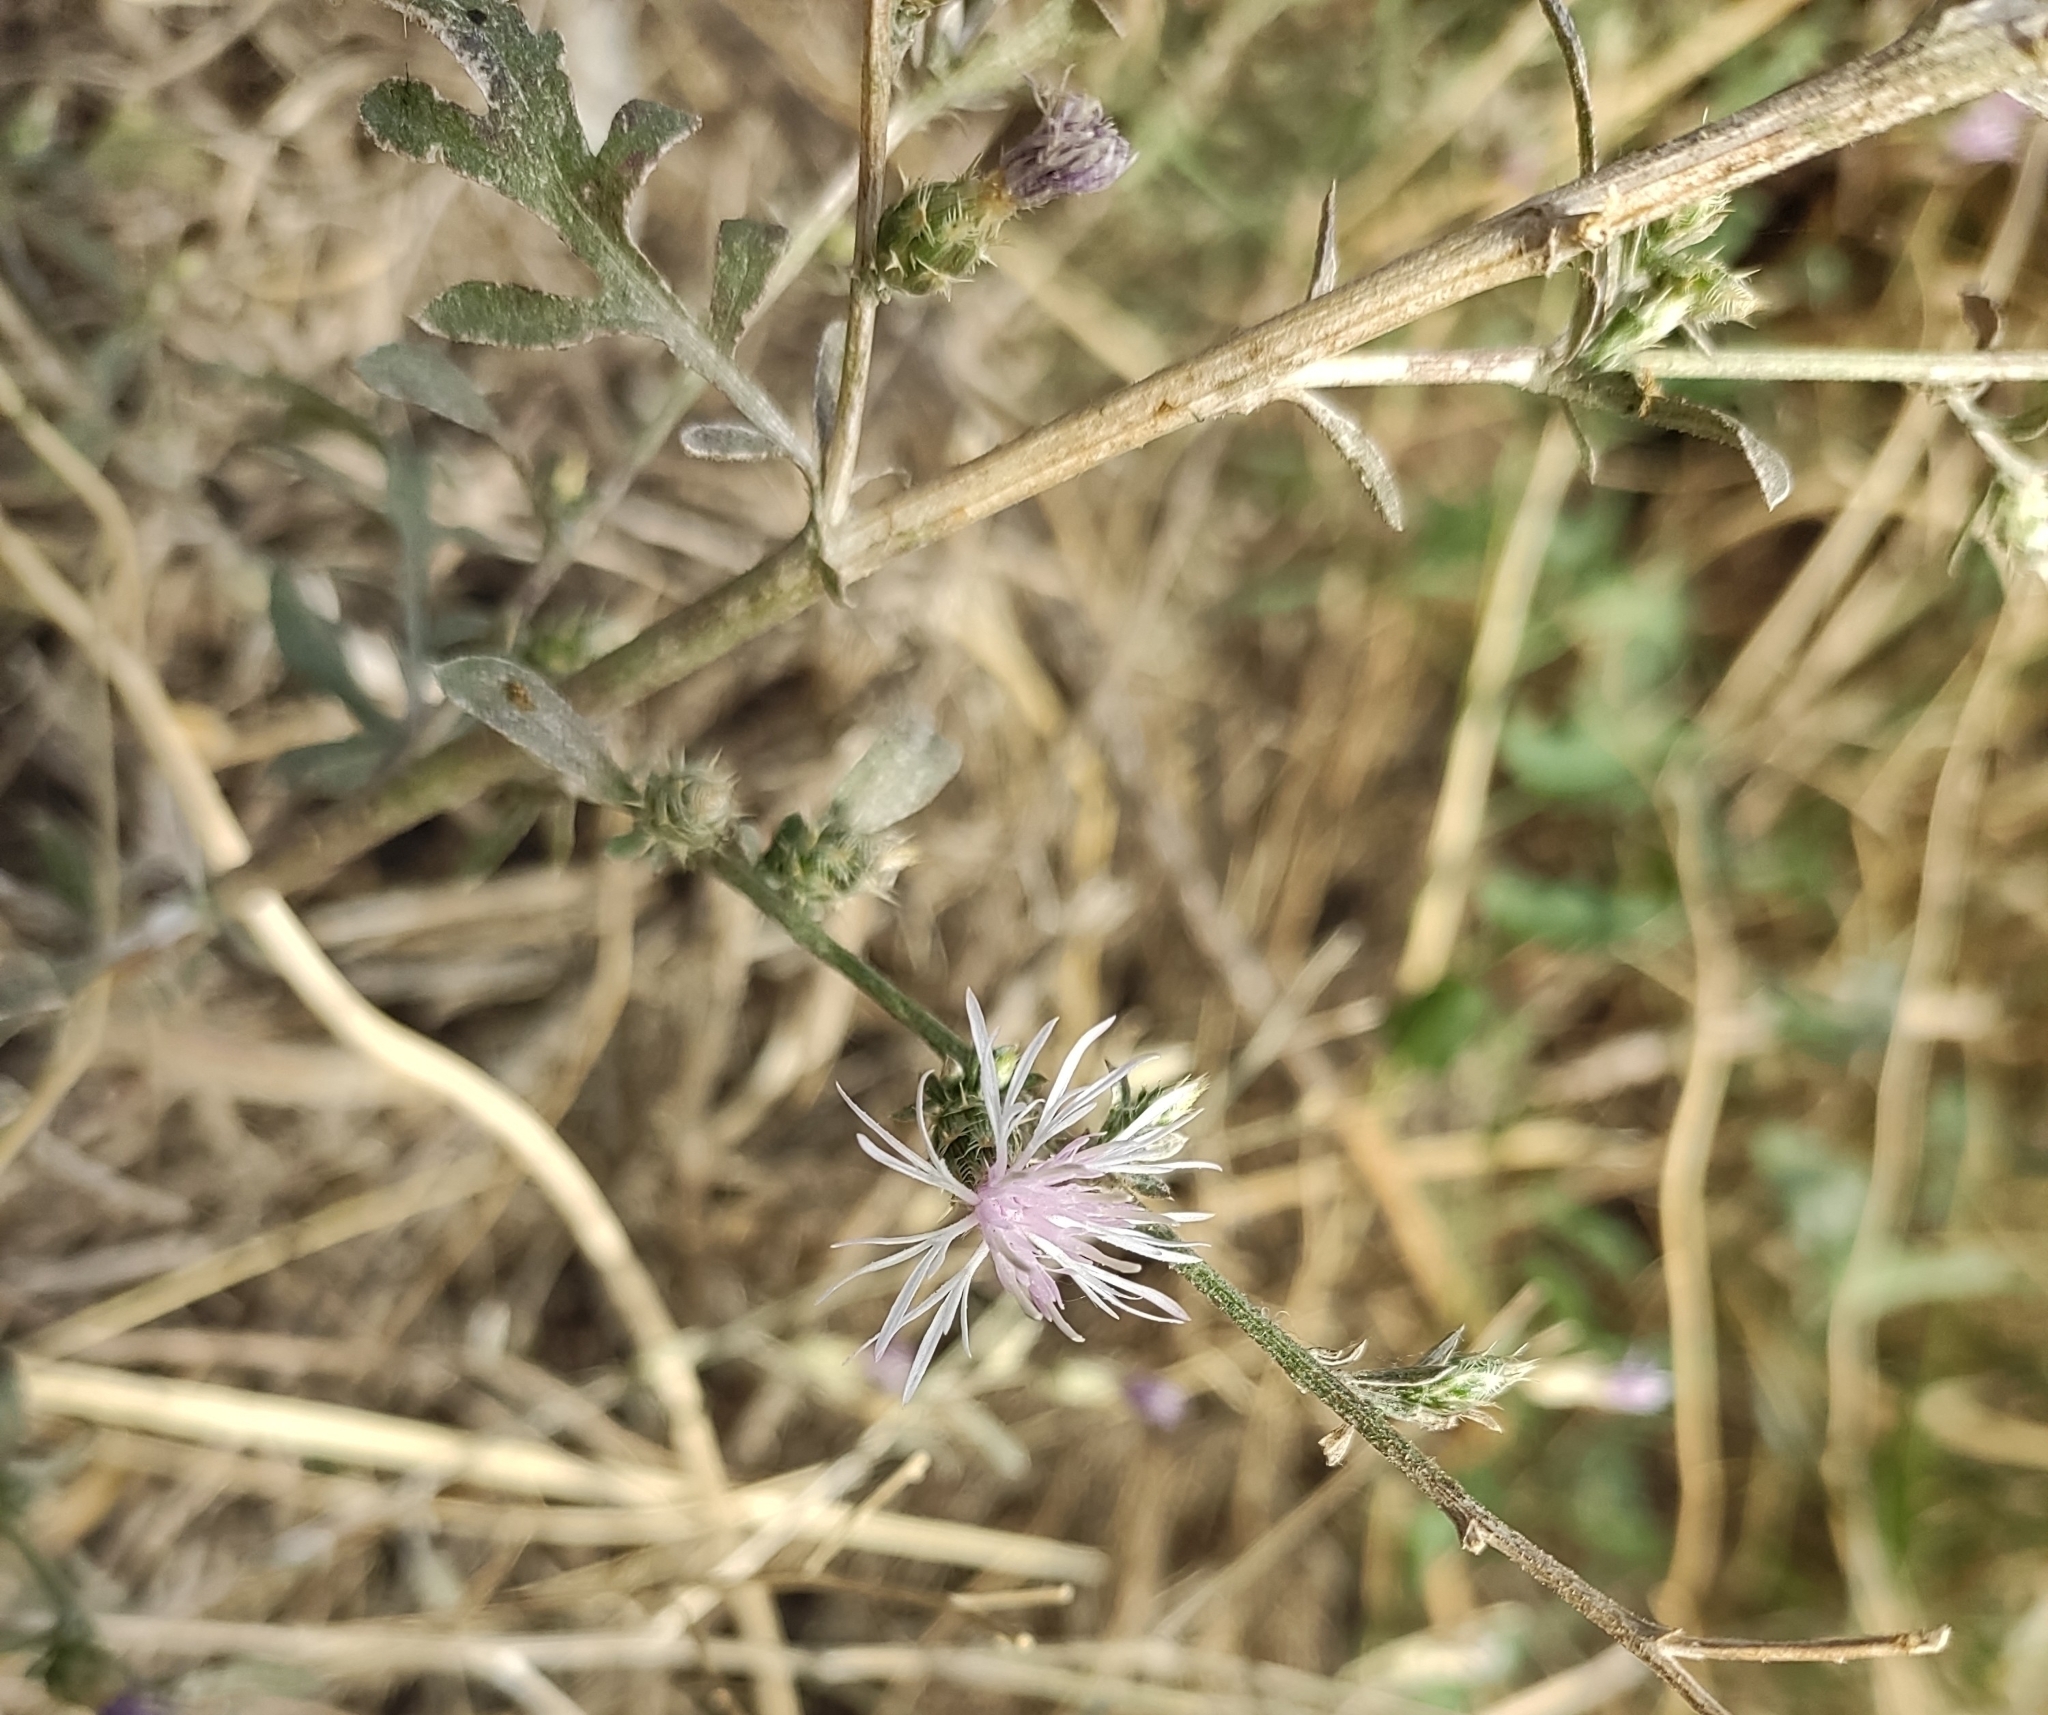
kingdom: Plantae
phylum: Tracheophyta
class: Magnoliopsida
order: Asterales
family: Asteraceae
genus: Centaurea
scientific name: Centaurea diffusa
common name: Diffuse knapweed
